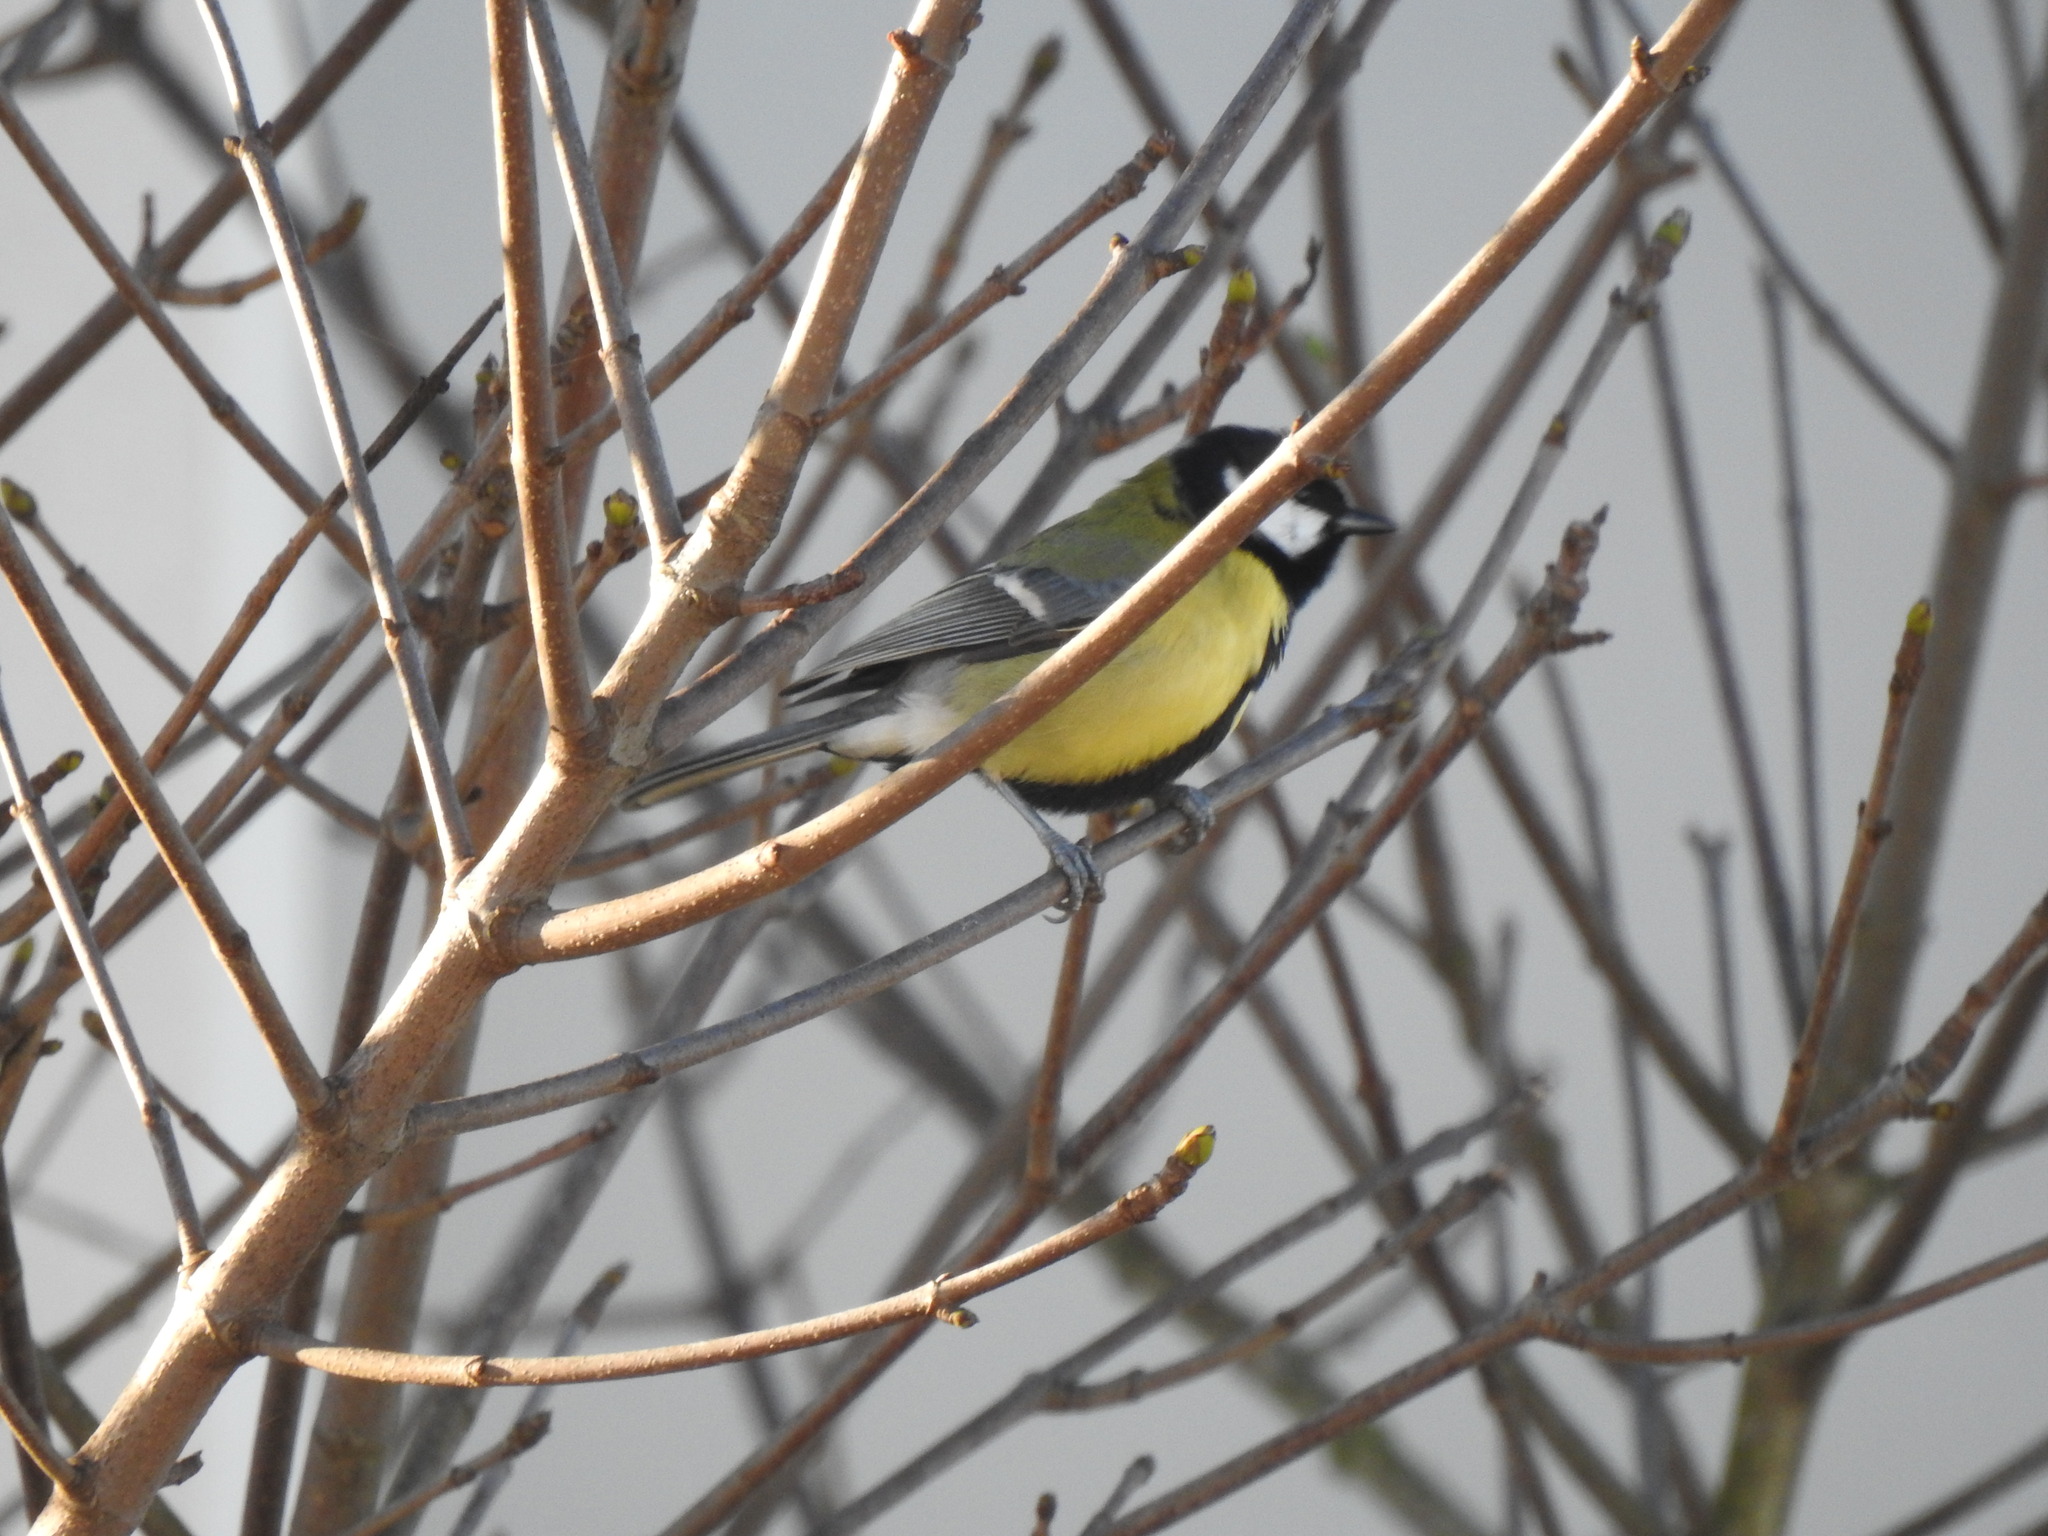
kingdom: Animalia
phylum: Chordata
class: Aves
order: Passeriformes
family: Paridae
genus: Parus
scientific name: Parus major
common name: Great tit
